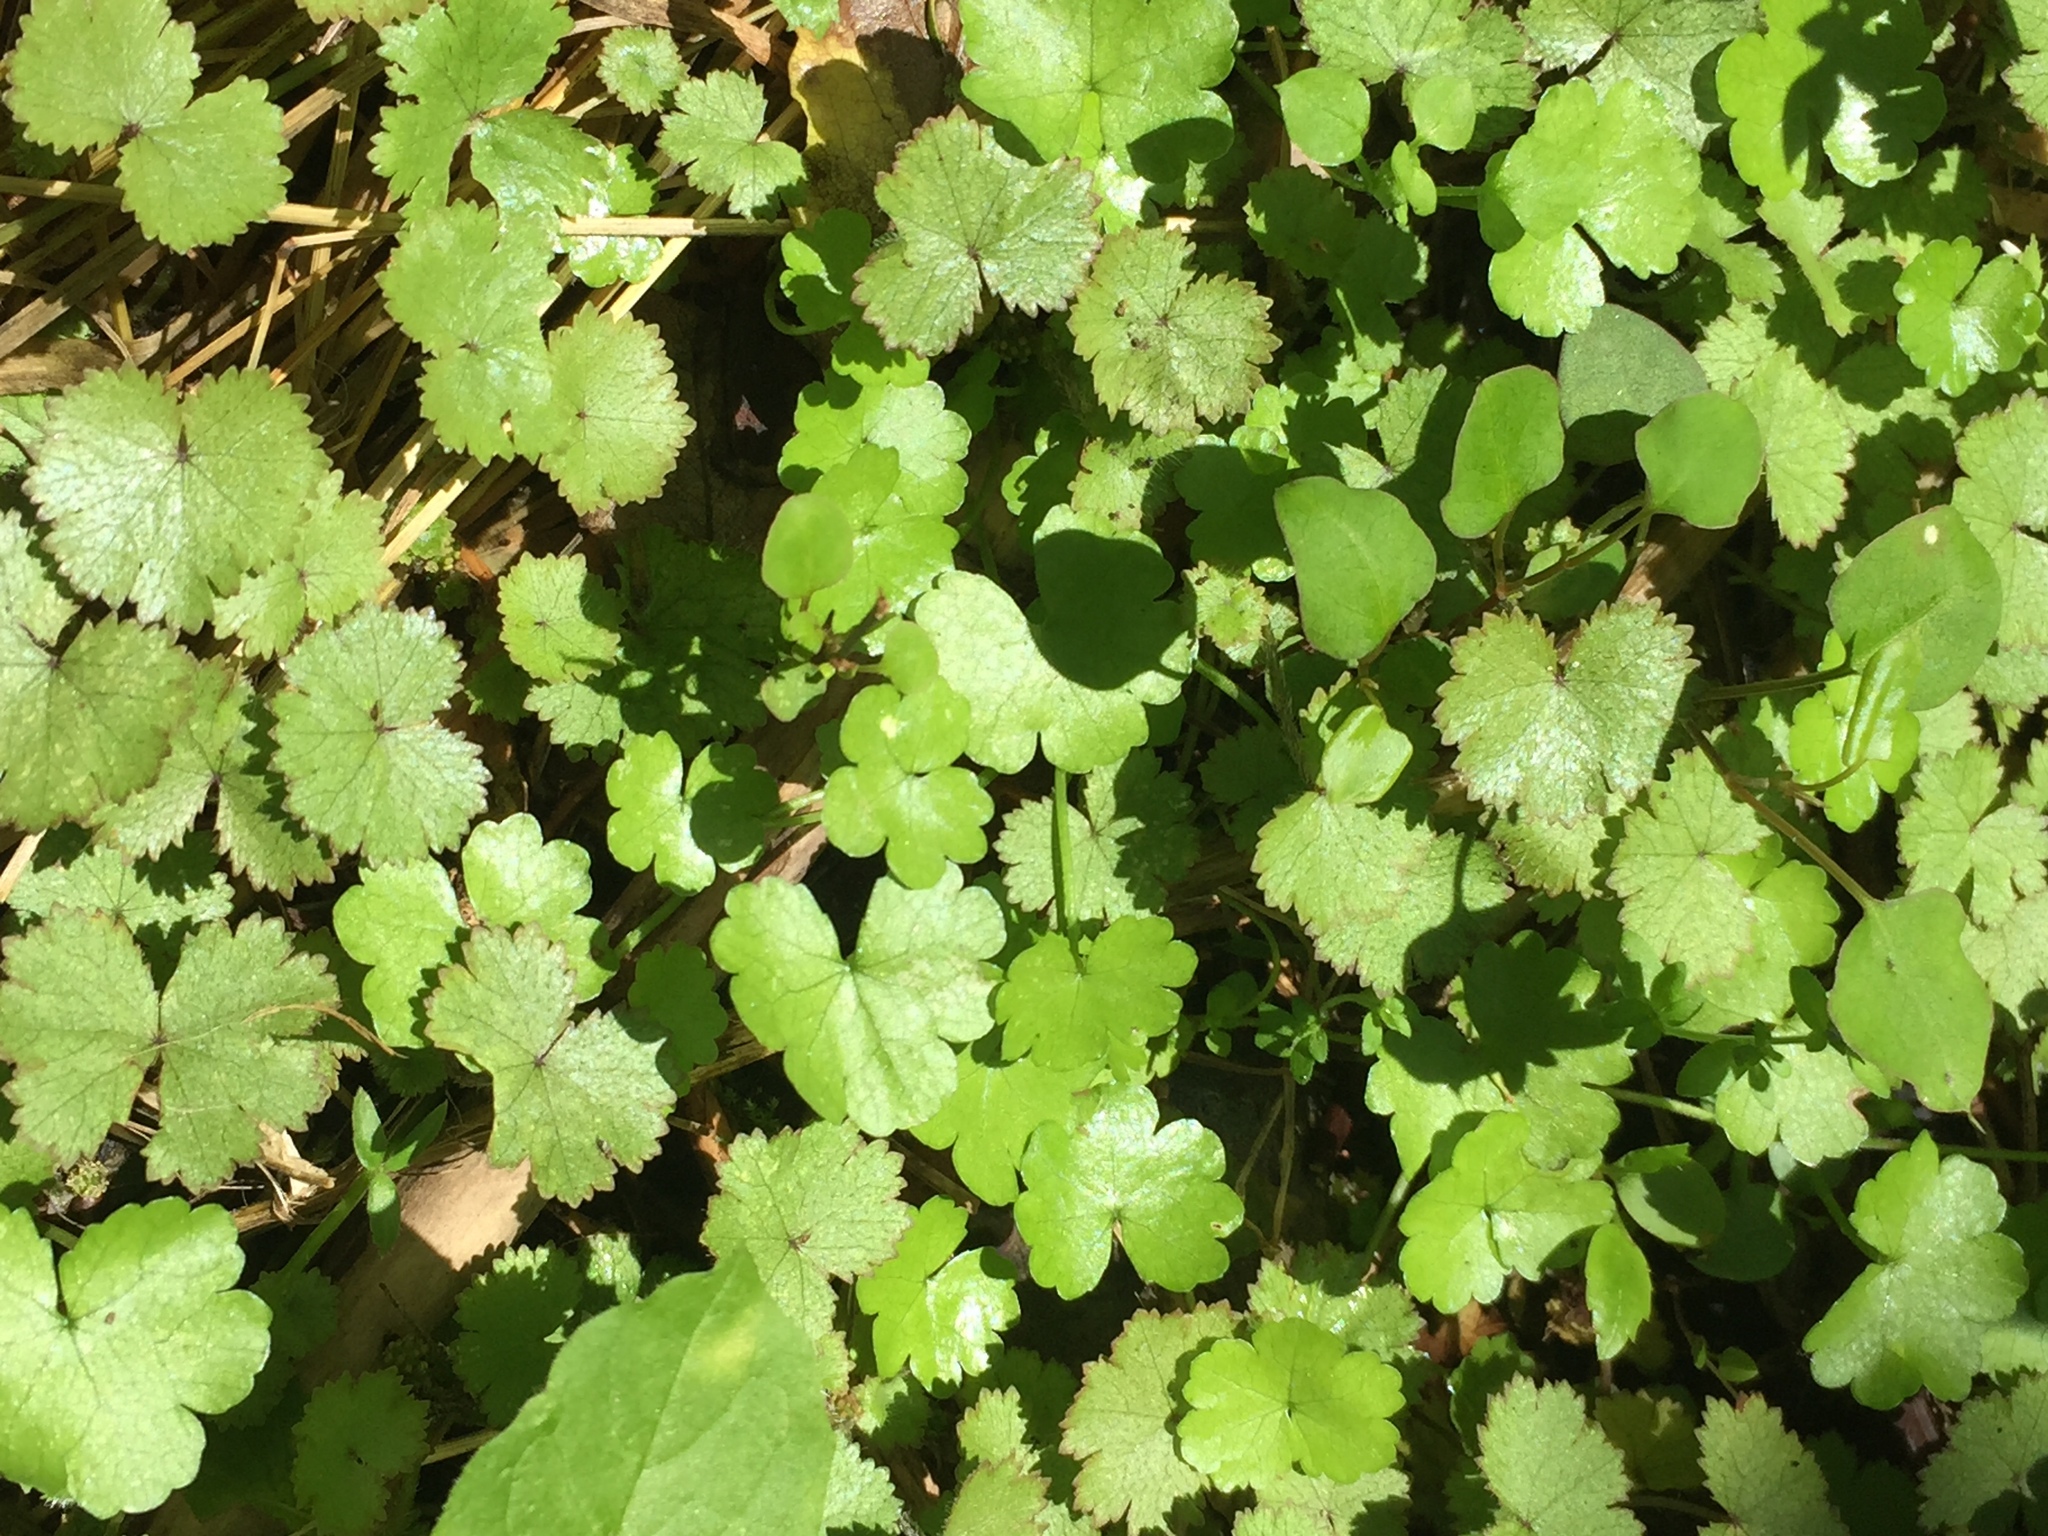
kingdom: Plantae
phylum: Tracheophyta
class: Magnoliopsida
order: Apiales
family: Araliaceae
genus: Hydrocotyle
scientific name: Hydrocotyle moschata
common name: Hairy pennywort
